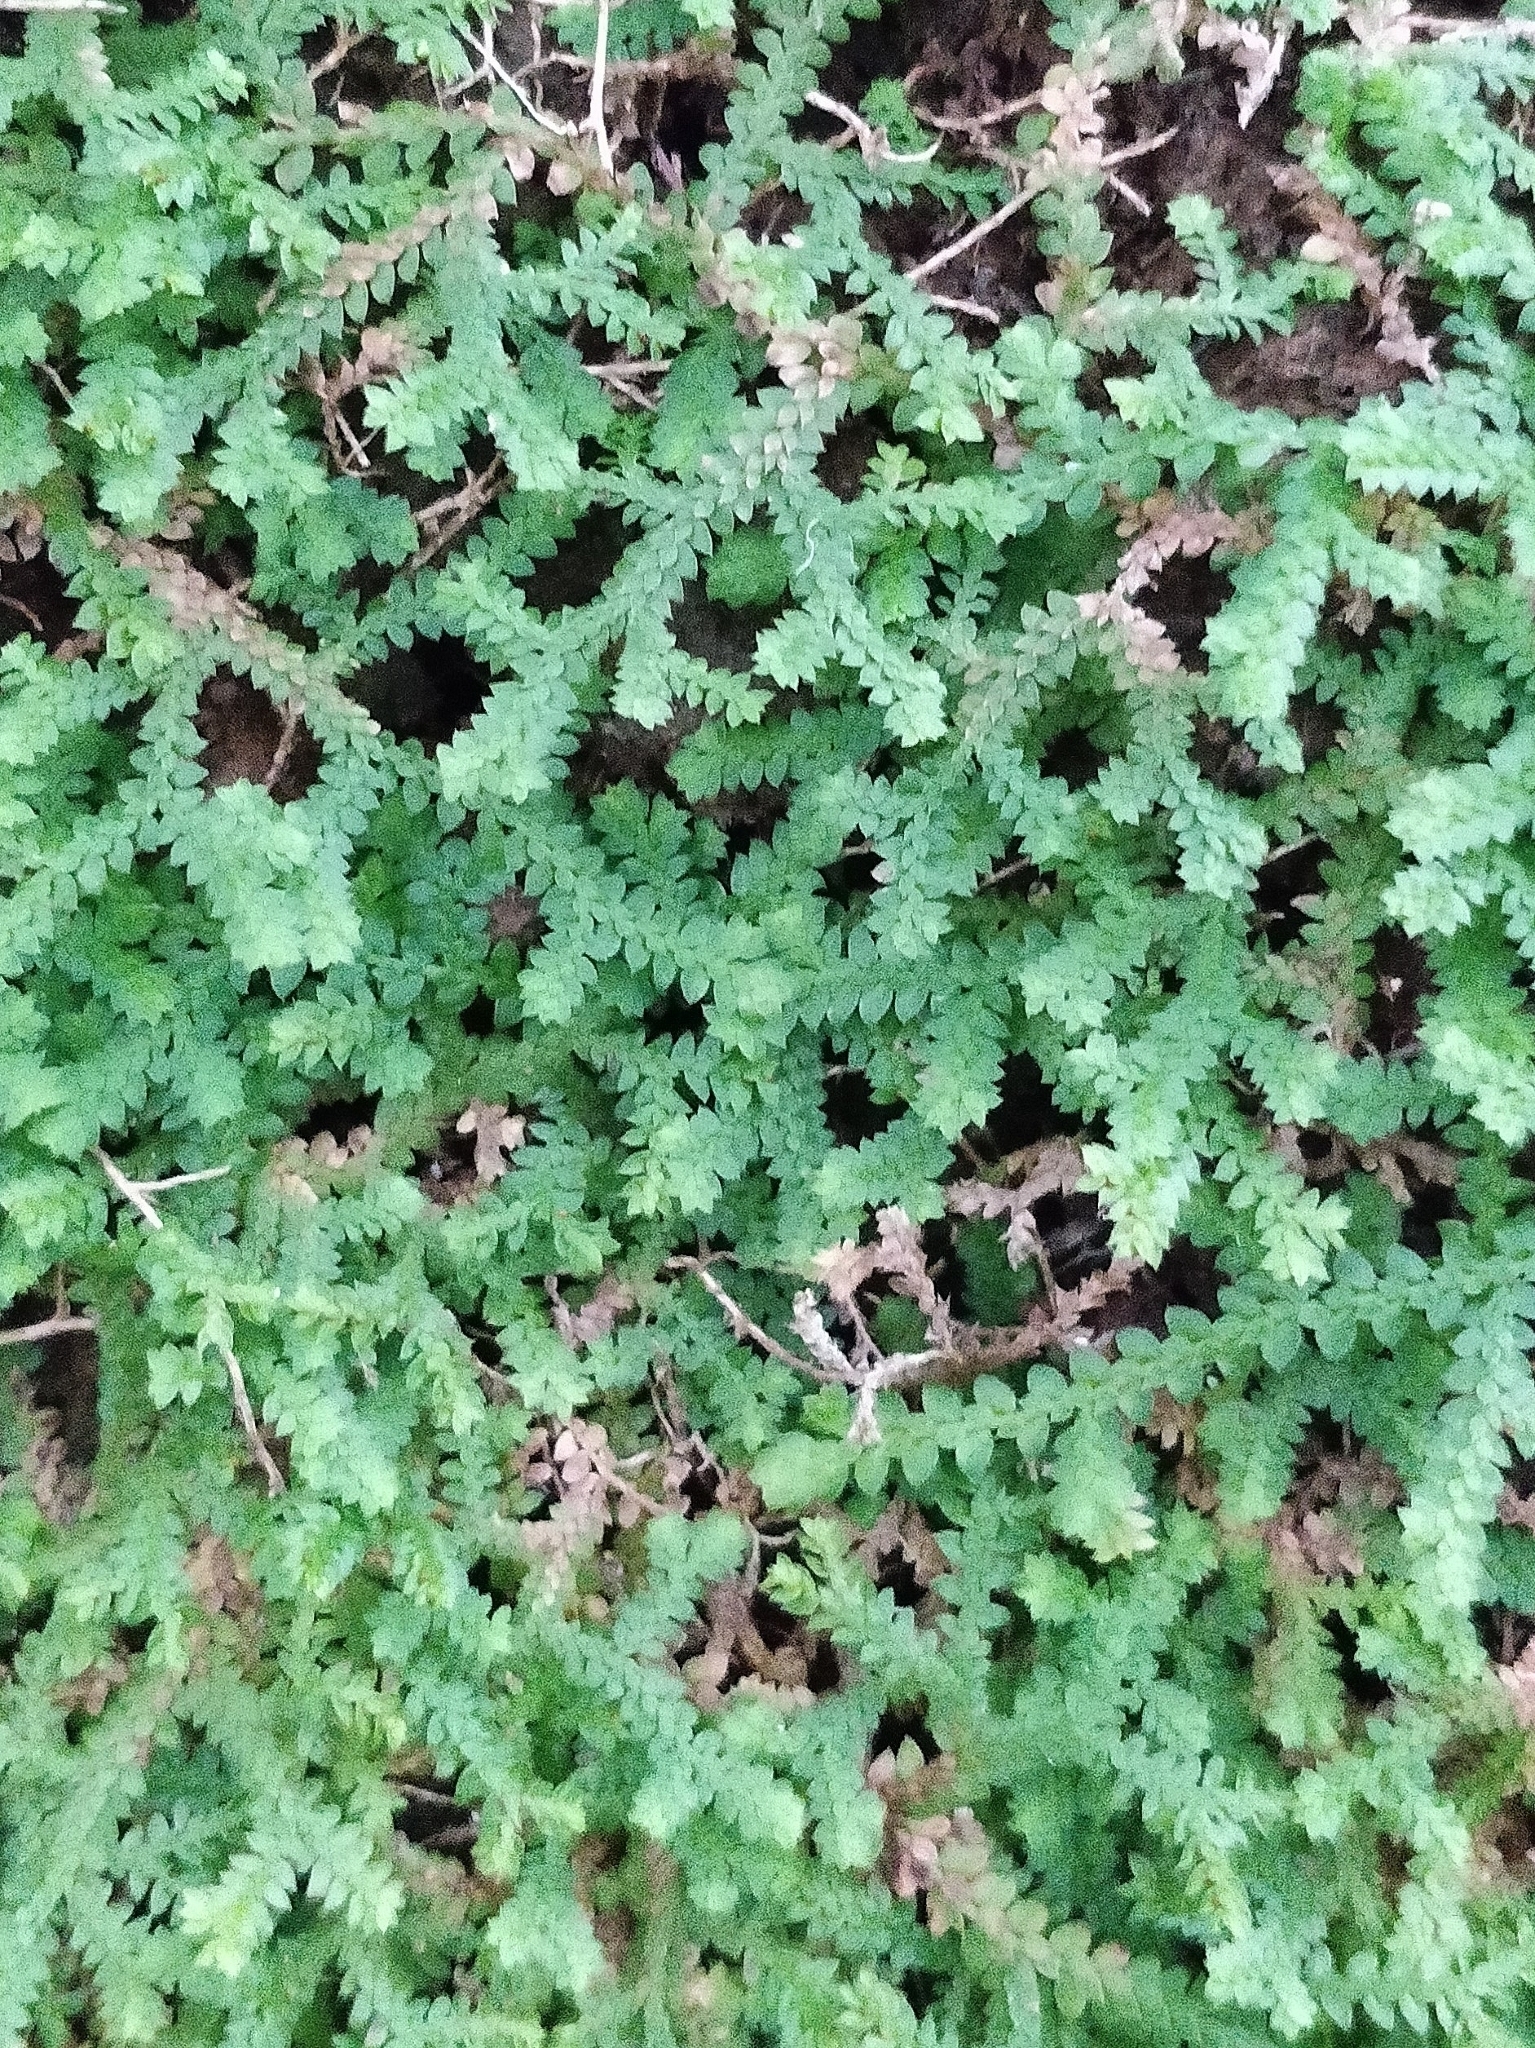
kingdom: Plantae
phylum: Tracheophyta
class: Lycopodiopsida
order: Selaginellales
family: Selaginellaceae
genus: Selaginella
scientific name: Selaginella denticulata
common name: Toothed-leaved clubmoss
